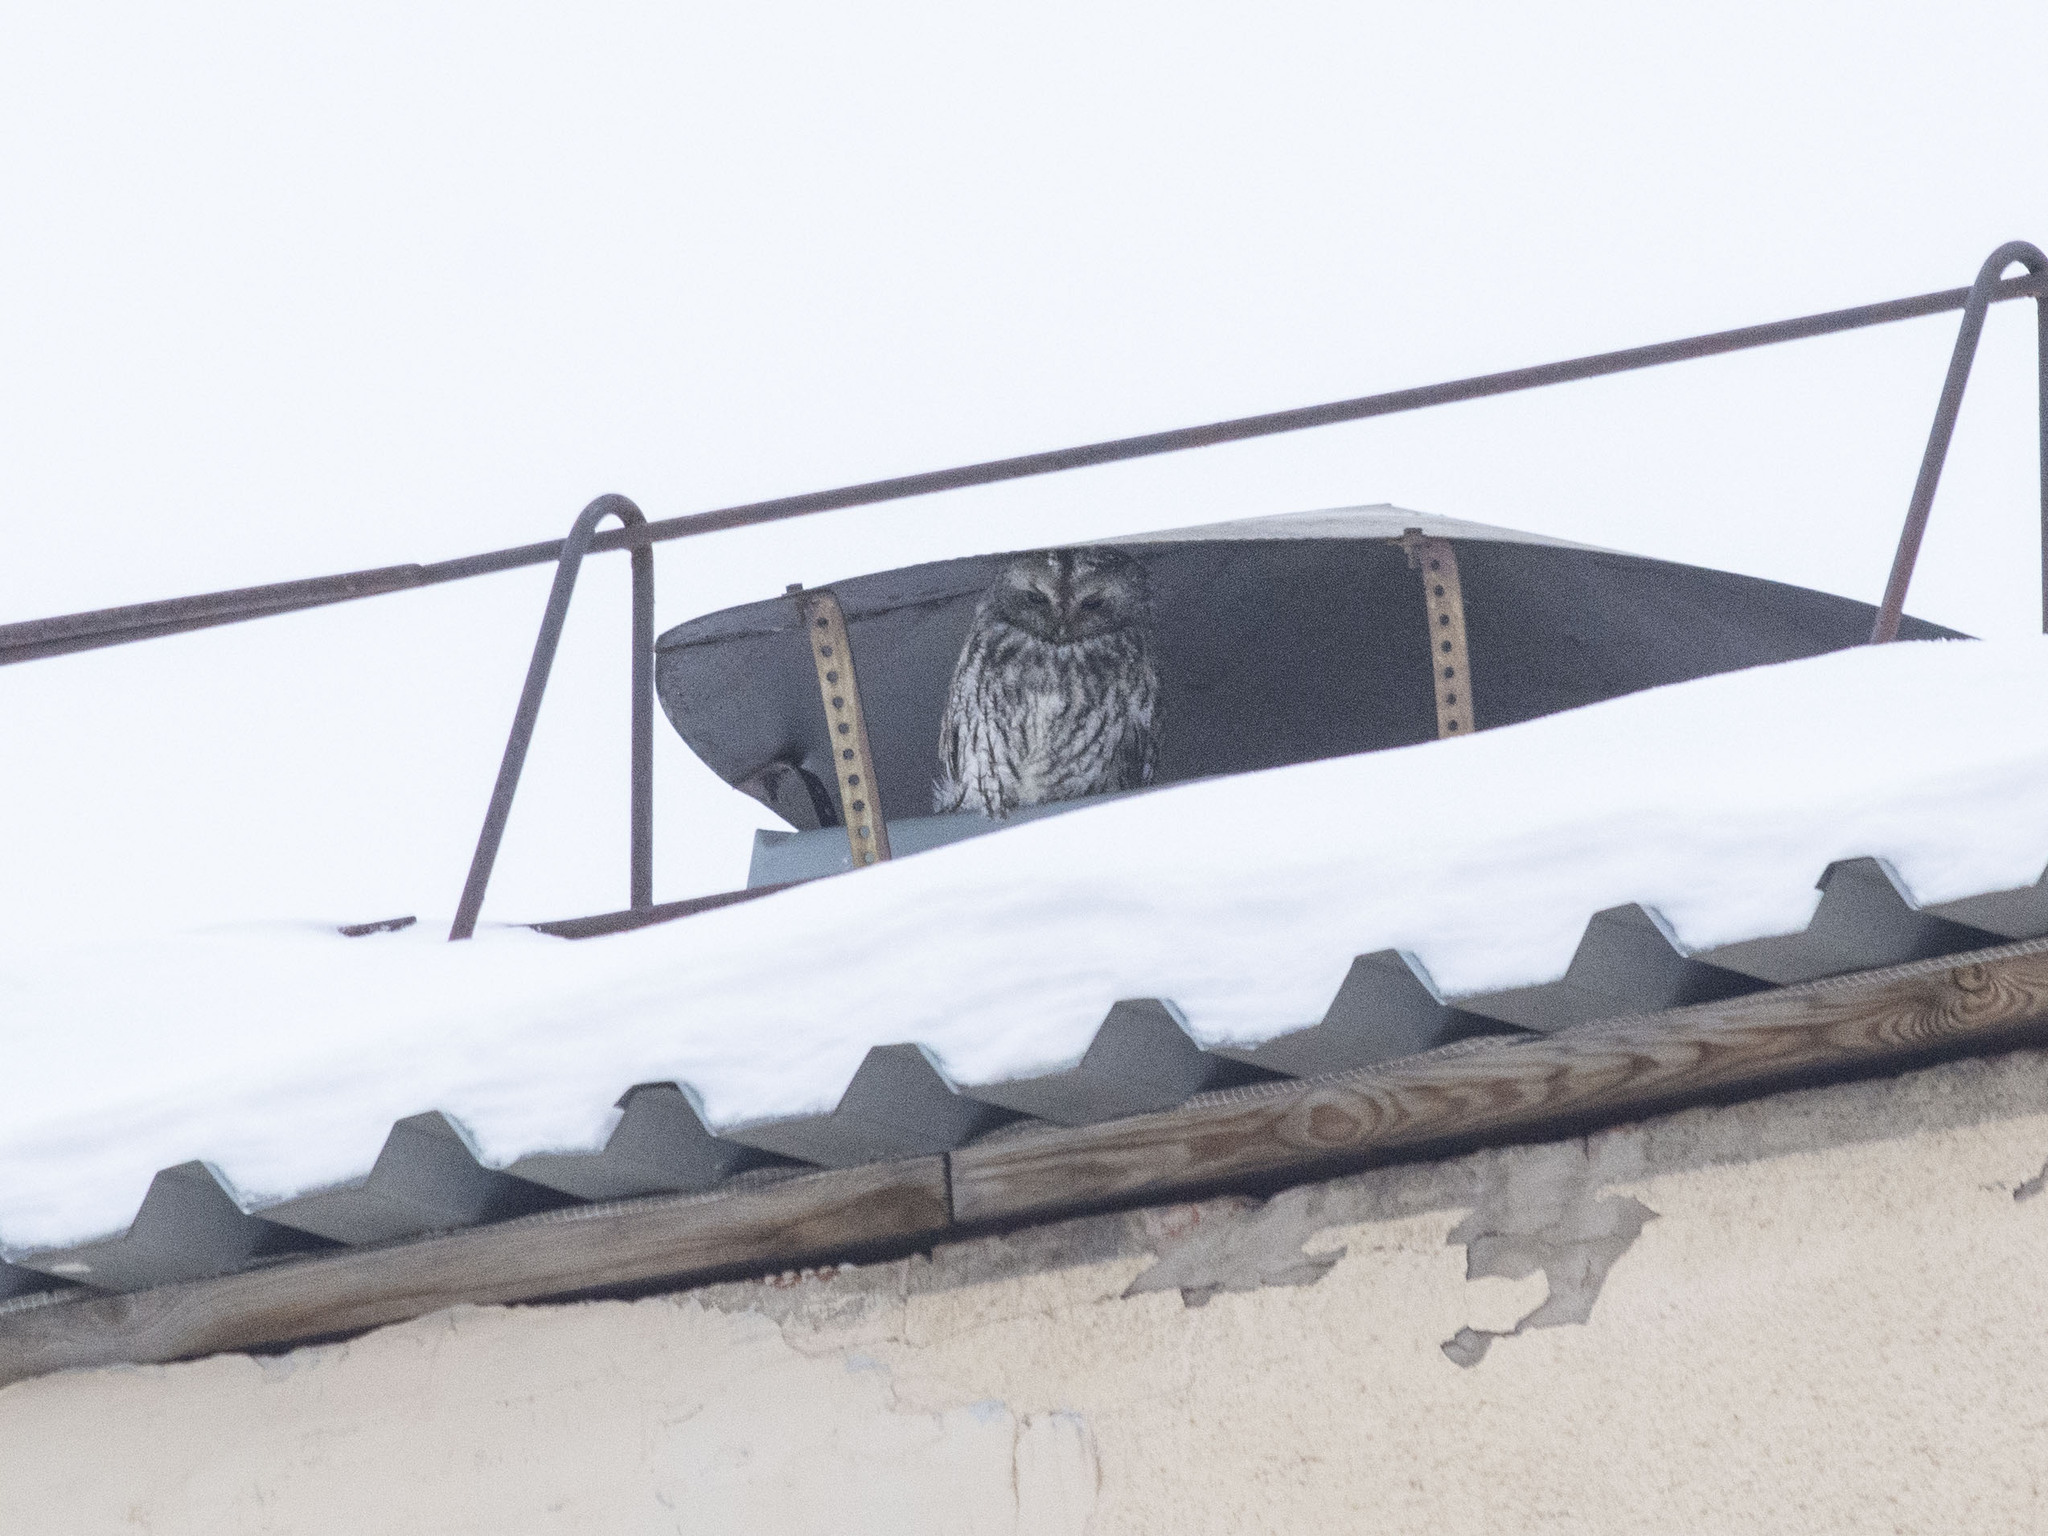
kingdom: Animalia
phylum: Chordata
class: Aves
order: Strigiformes
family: Strigidae
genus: Strix
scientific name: Strix aluco
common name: Tawny owl
